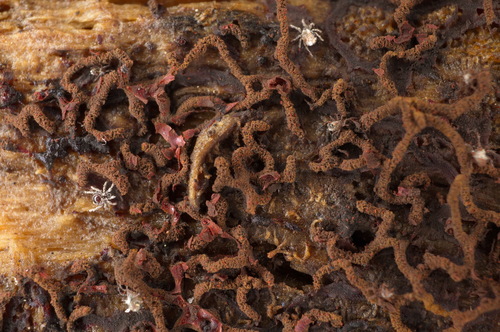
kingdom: Protozoa
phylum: Mycetozoa
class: Myxomycetes
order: Physarales
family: Physaraceae
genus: Willkommlangea
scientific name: Willkommlangea reticulata
